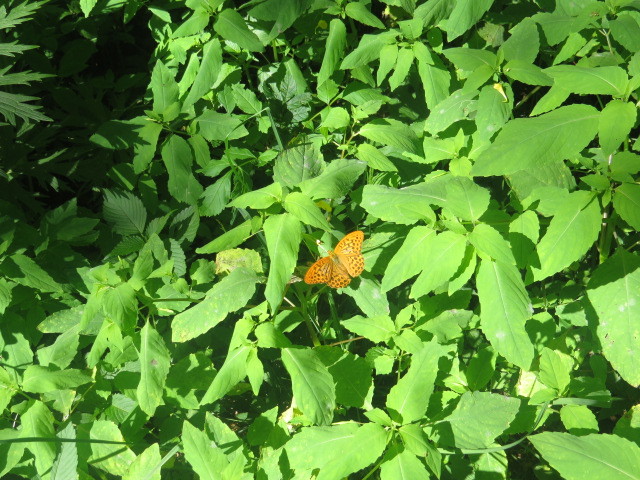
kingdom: Animalia
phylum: Arthropoda
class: Insecta
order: Lepidoptera
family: Nymphalidae
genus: Argynnis
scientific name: Argynnis paphia
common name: Silver-washed fritillary
